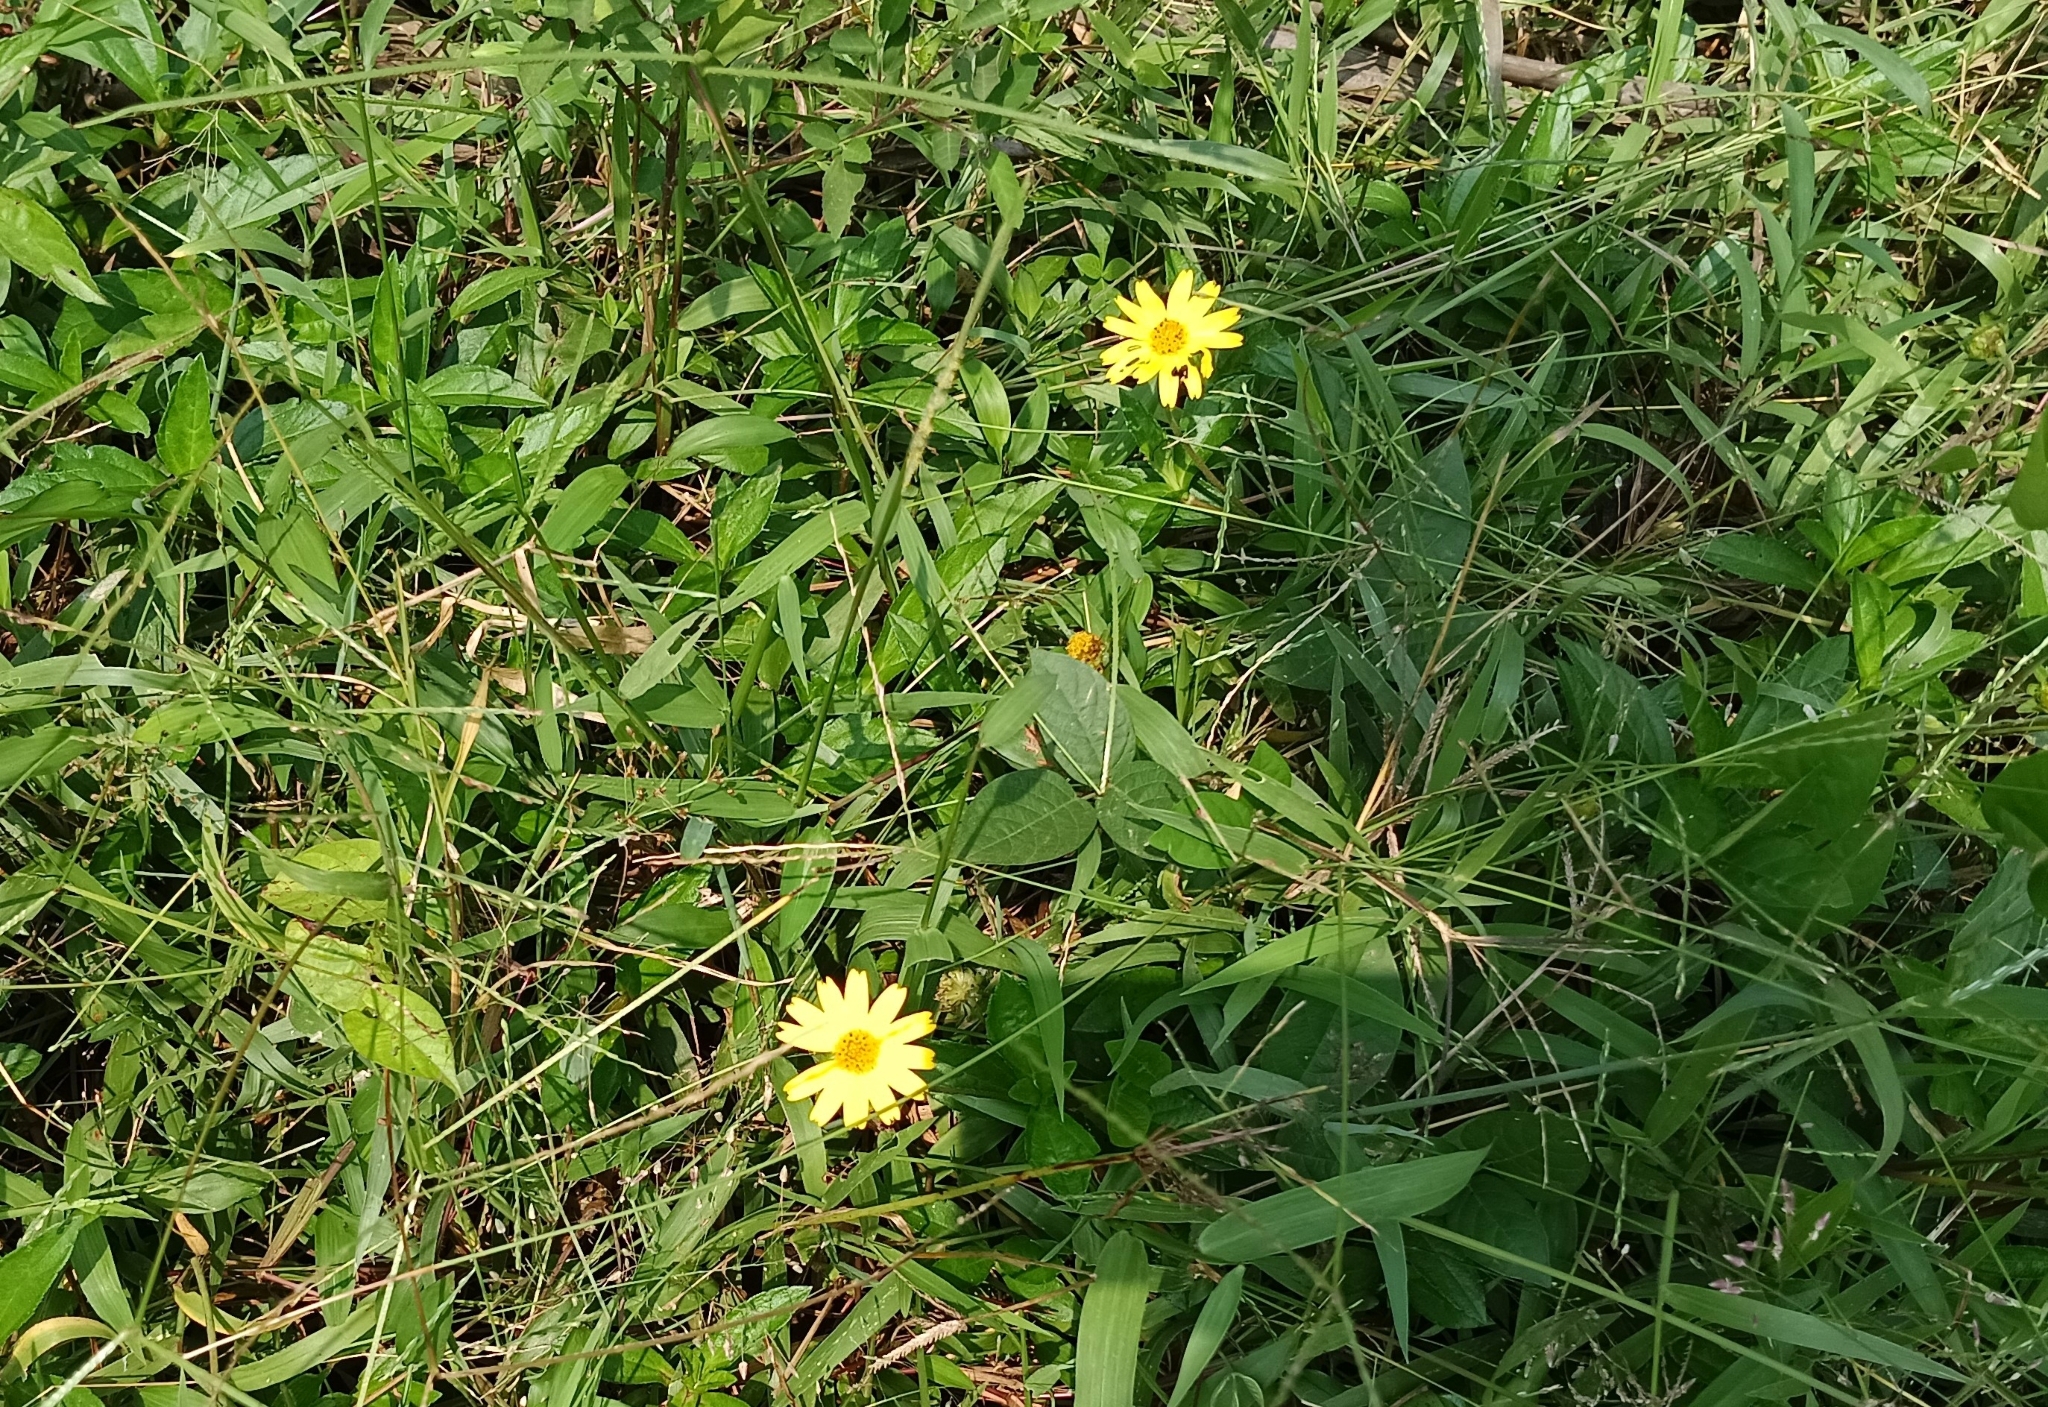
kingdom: Plantae
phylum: Tracheophyta
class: Magnoliopsida
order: Asterales
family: Asteraceae
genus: Sphagneticola
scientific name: Sphagneticola trilobata
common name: Bay biscayne creeping-oxeye
